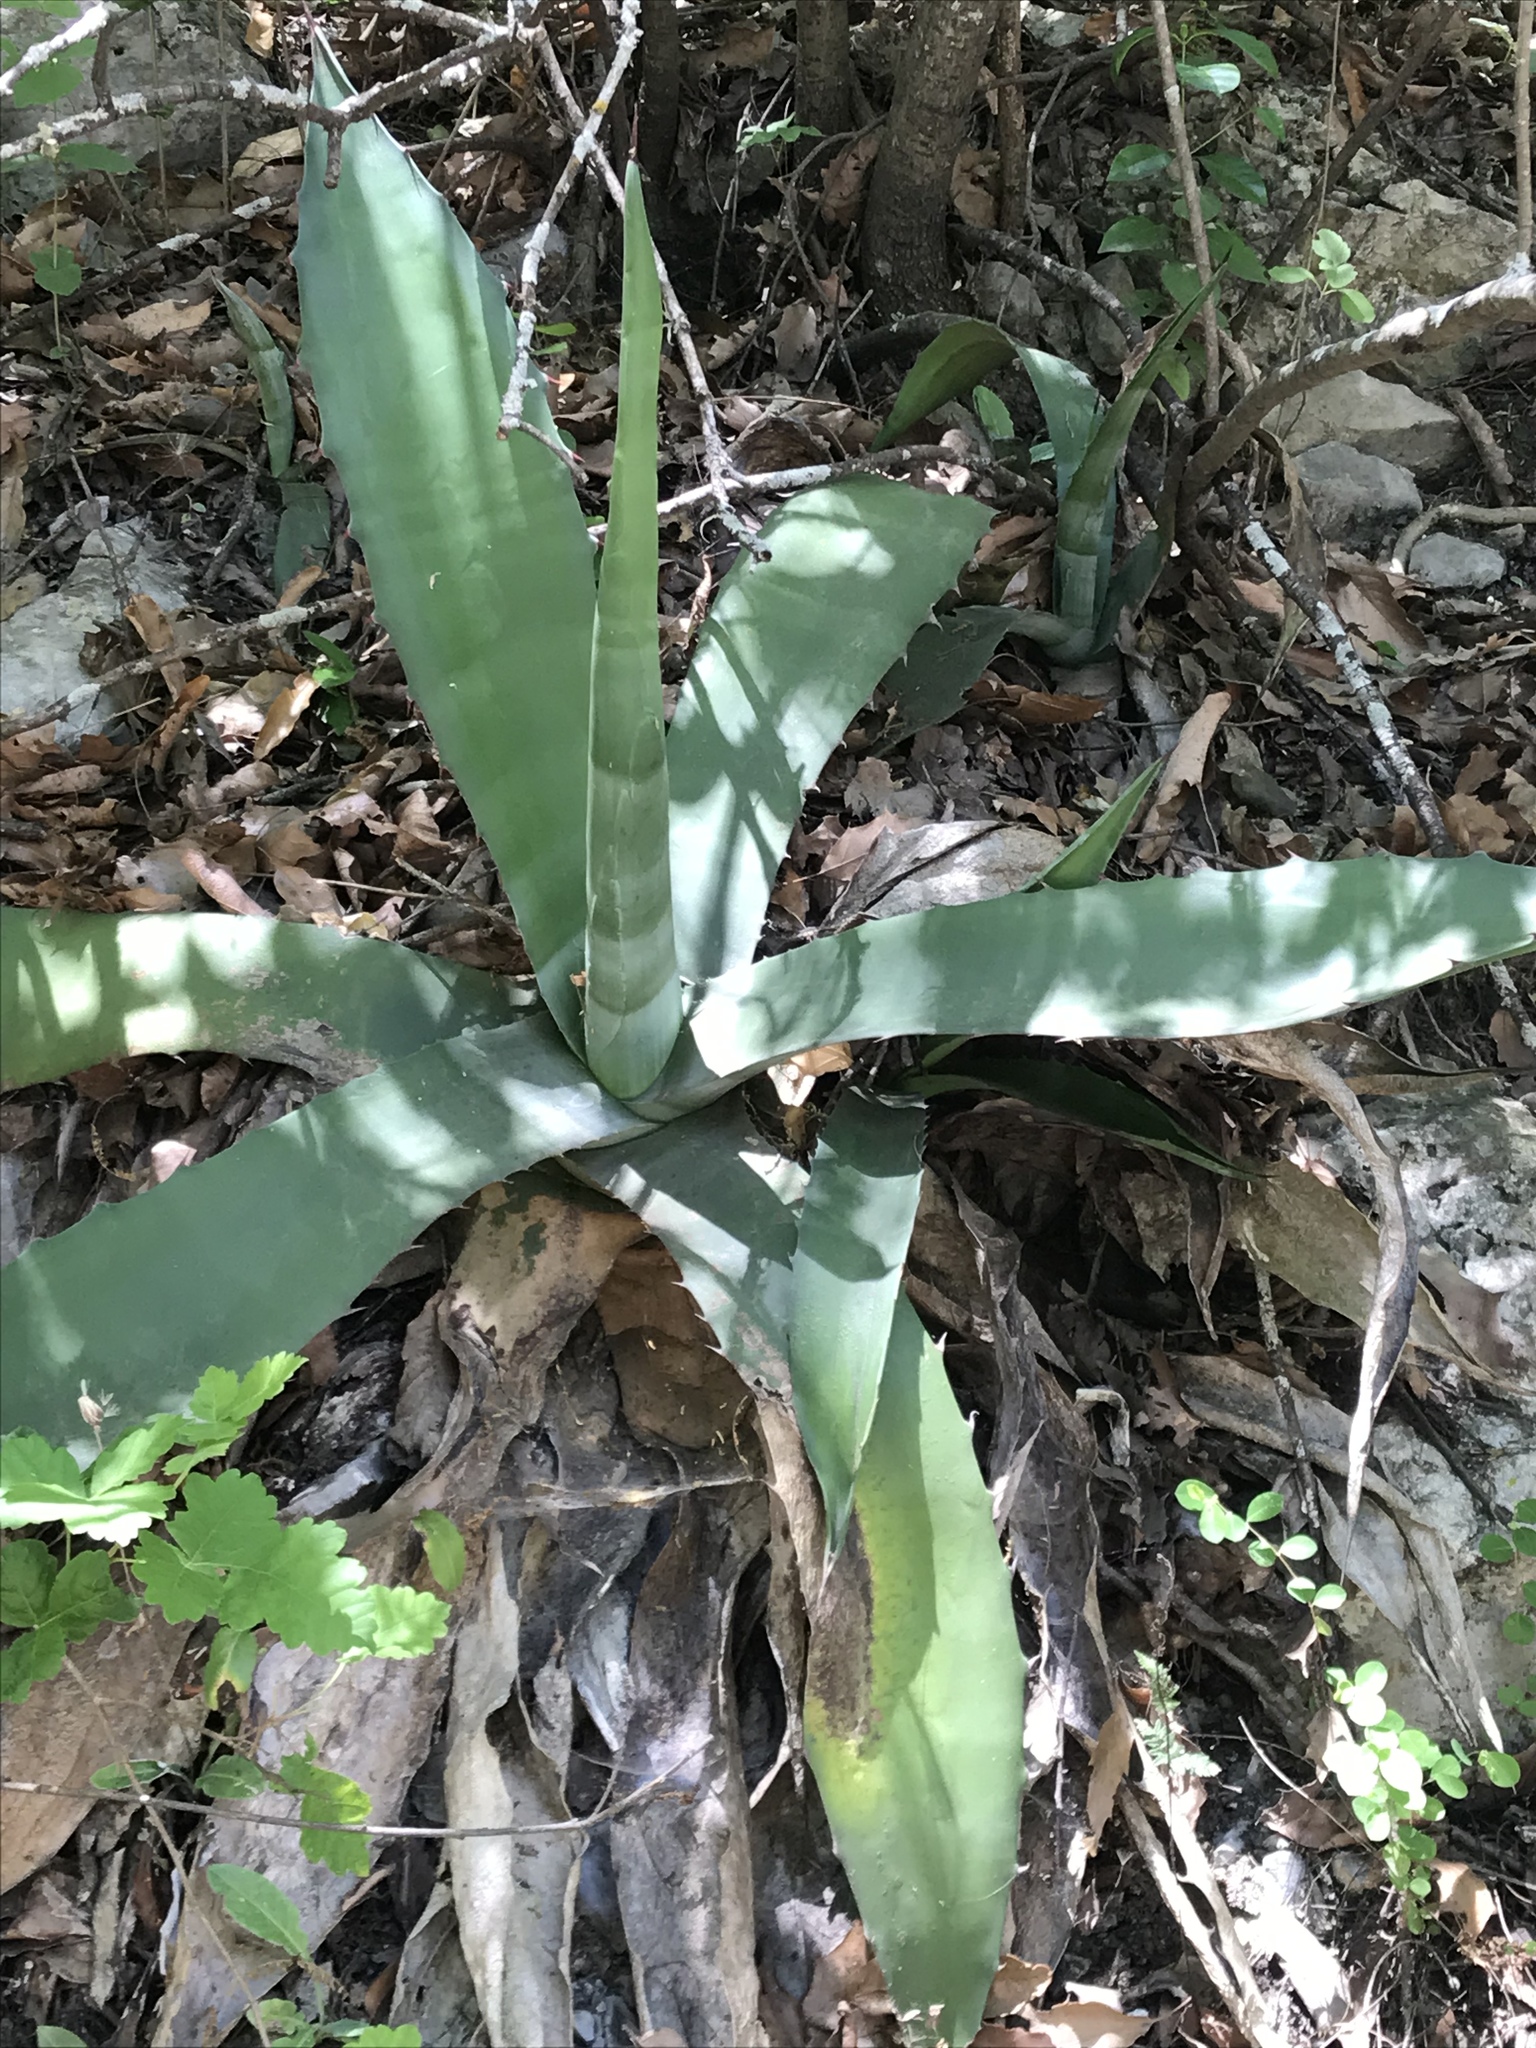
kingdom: Plantae
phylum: Tracheophyta
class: Liliopsida
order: Asparagales
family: Asparagaceae
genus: Agave
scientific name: Agave asperrima
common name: Rough agave
